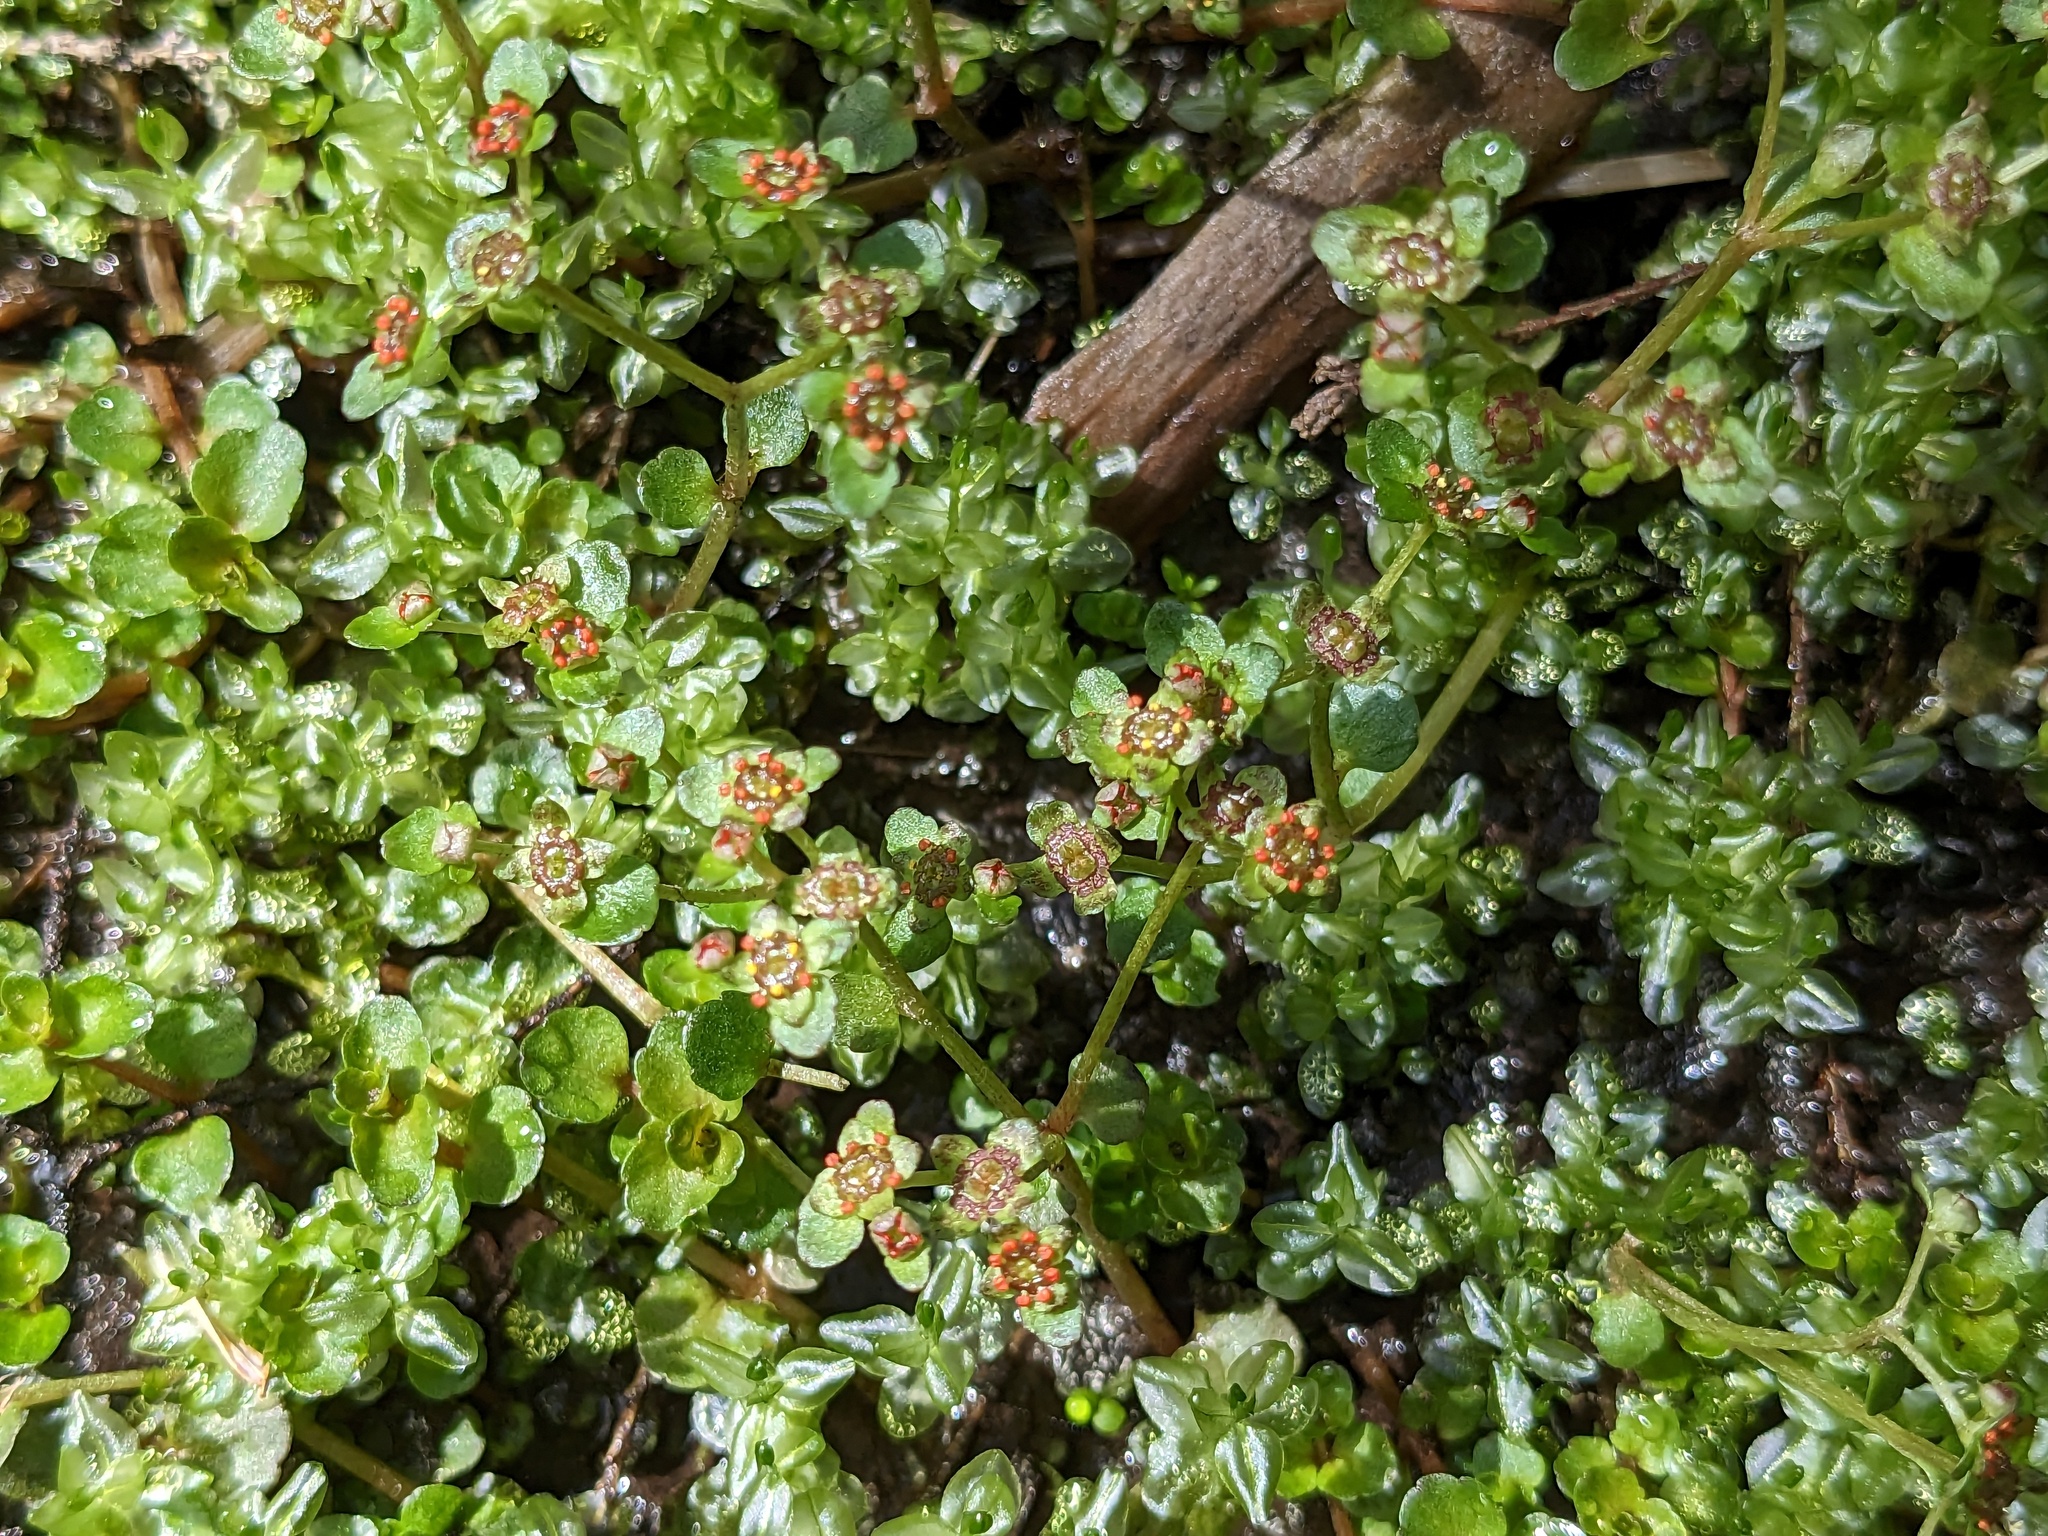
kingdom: Plantae
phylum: Tracheophyta
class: Magnoliopsida
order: Saxifragales
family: Saxifragaceae
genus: Chrysosplenium
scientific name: Chrysosplenium americanum
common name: American golden-saxifrage
